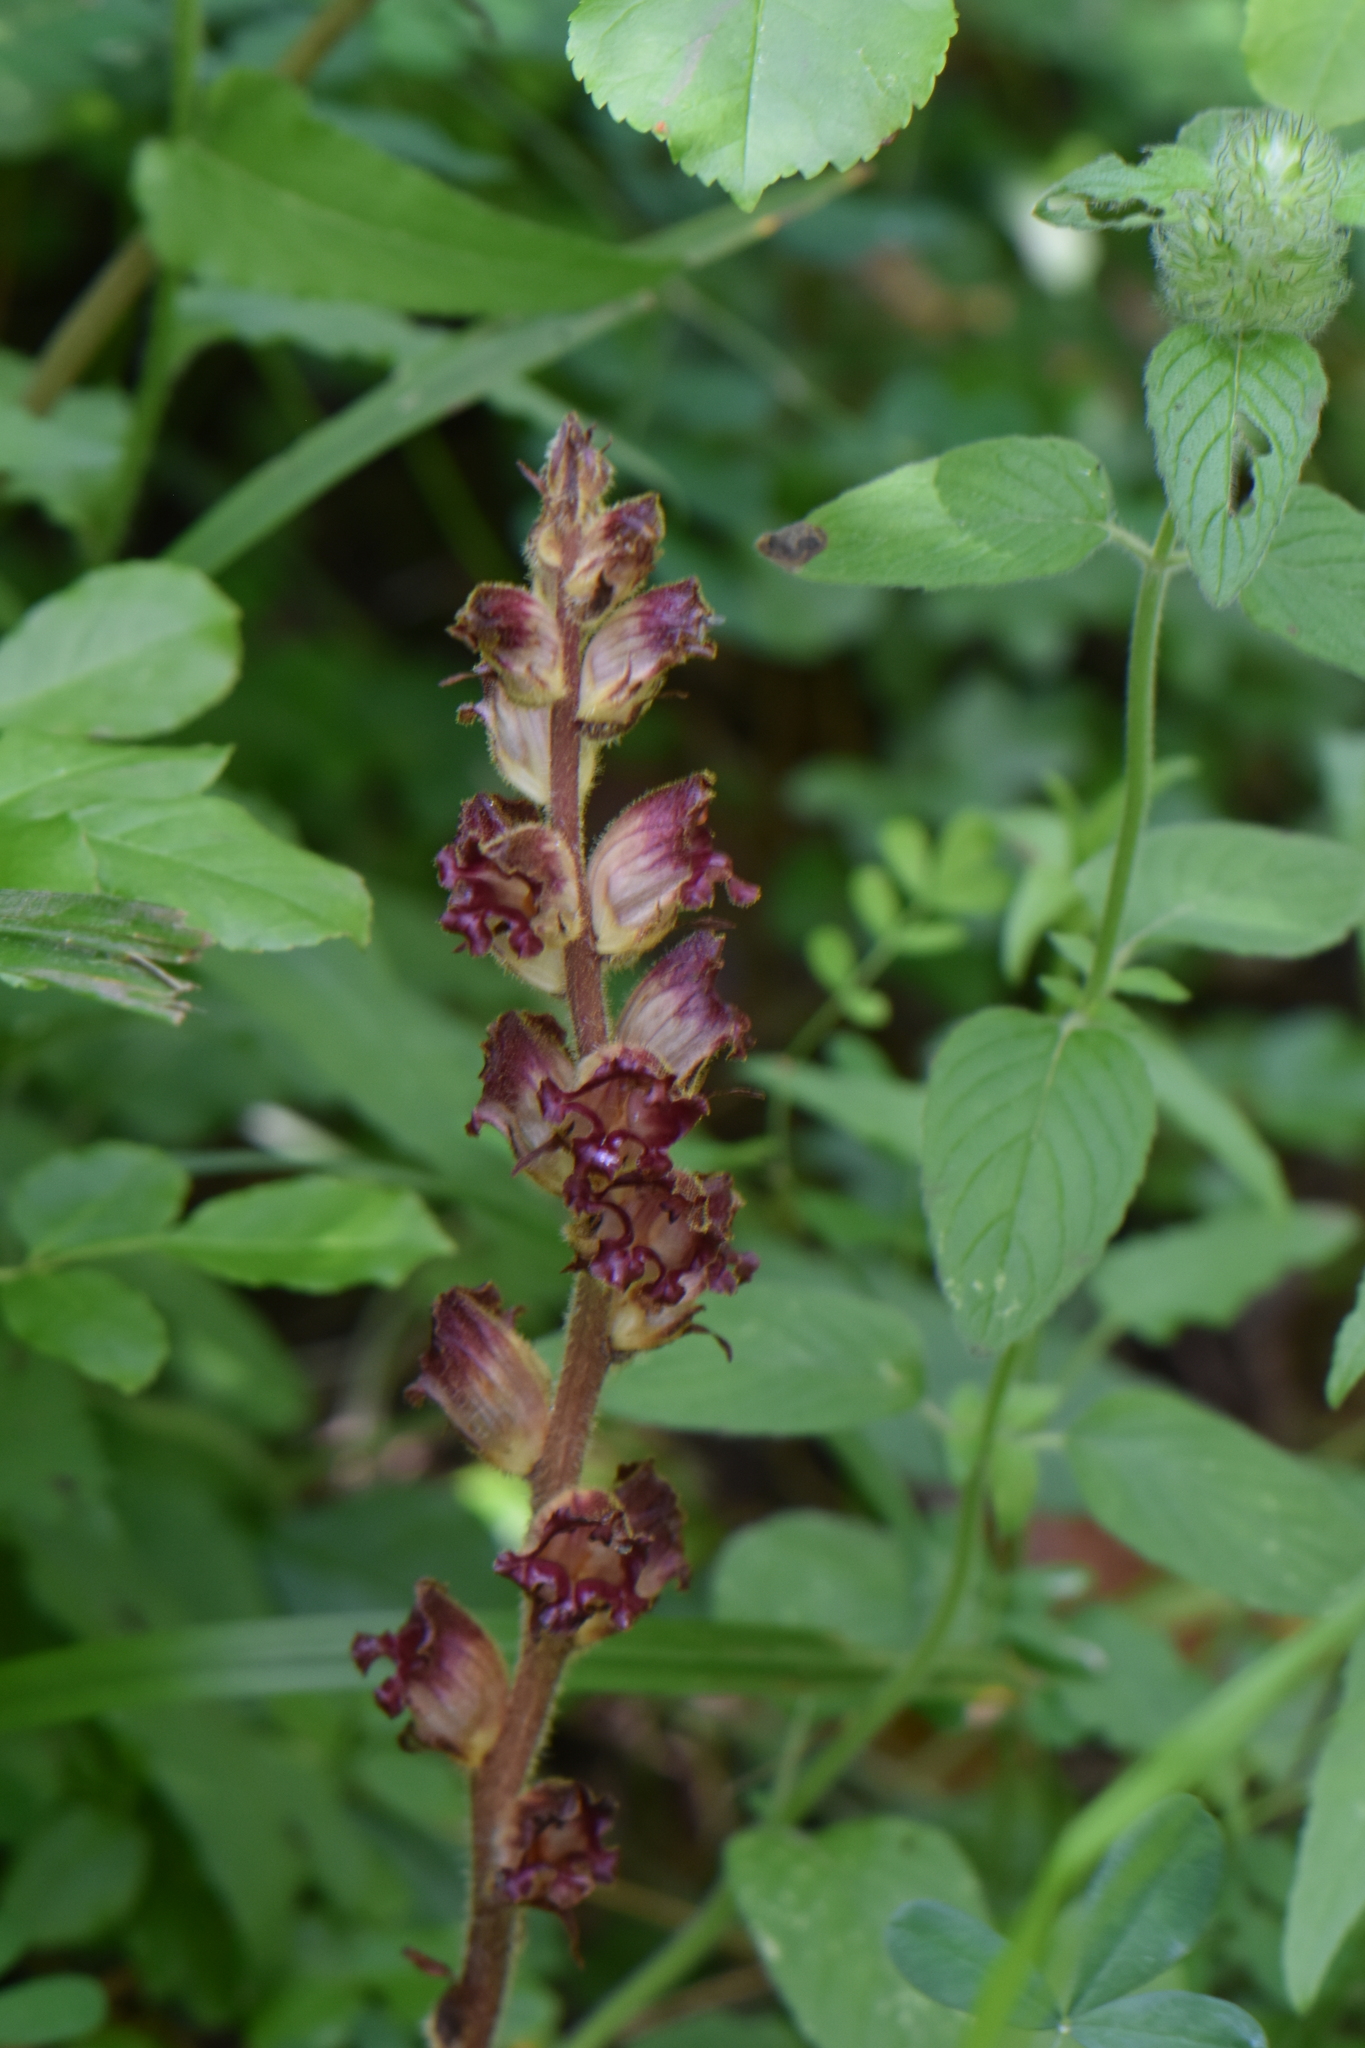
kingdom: Plantae
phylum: Tracheophyta
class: Magnoliopsida
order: Lamiales
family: Orobanchaceae
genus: Orobanche
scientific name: Orobanche gracilis
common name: Slender broomrape
